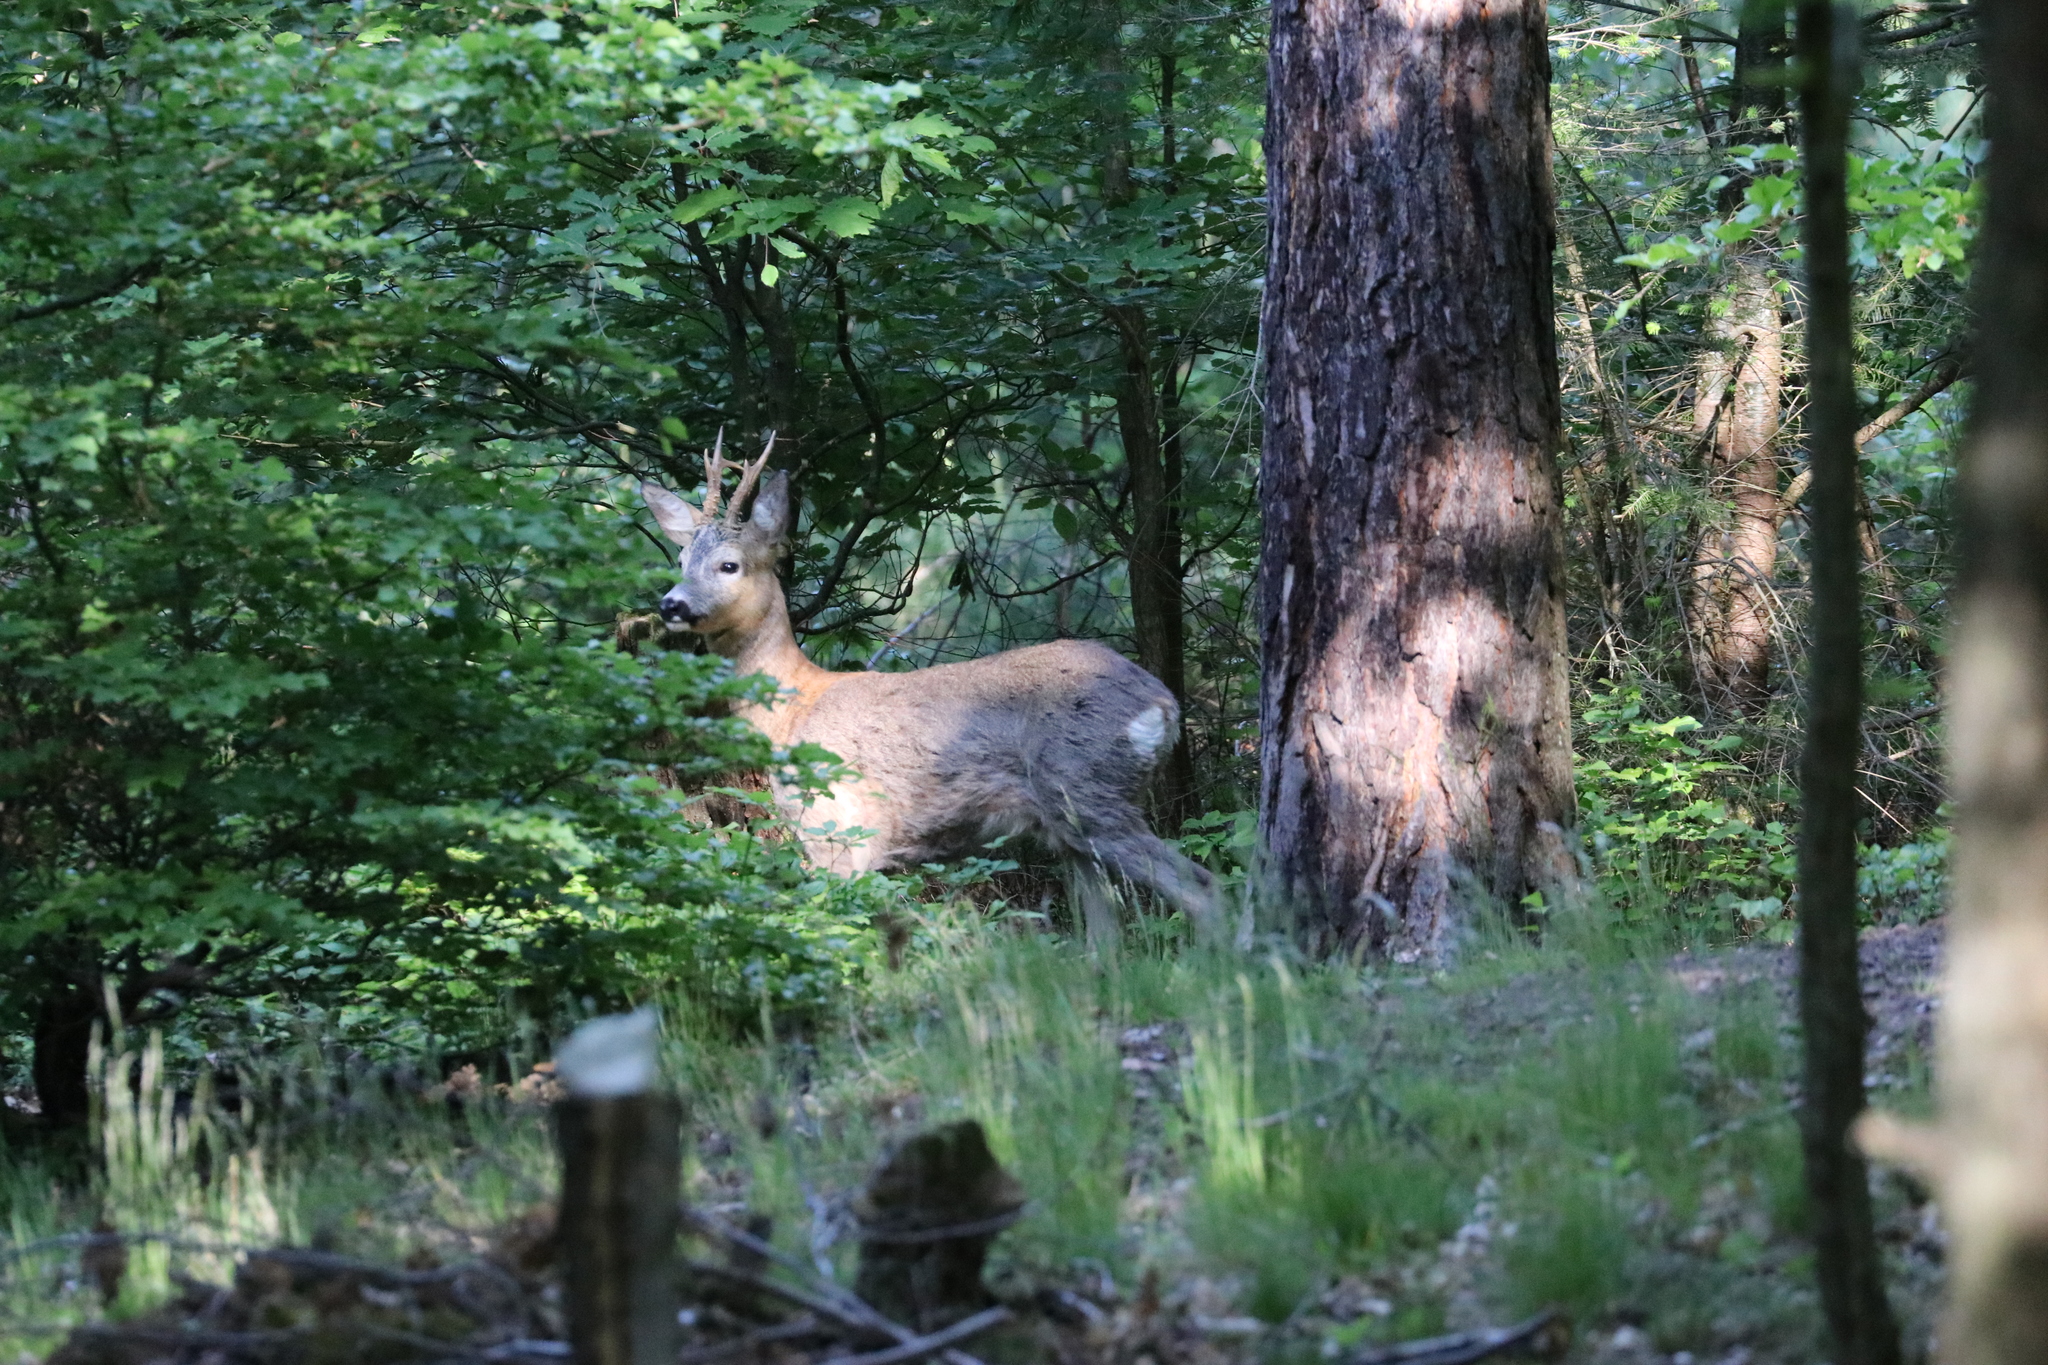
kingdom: Animalia
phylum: Chordata
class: Mammalia
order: Artiodactyla
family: Cervidae
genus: Capreolus
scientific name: Capreolus capreolus
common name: Western roe deer
